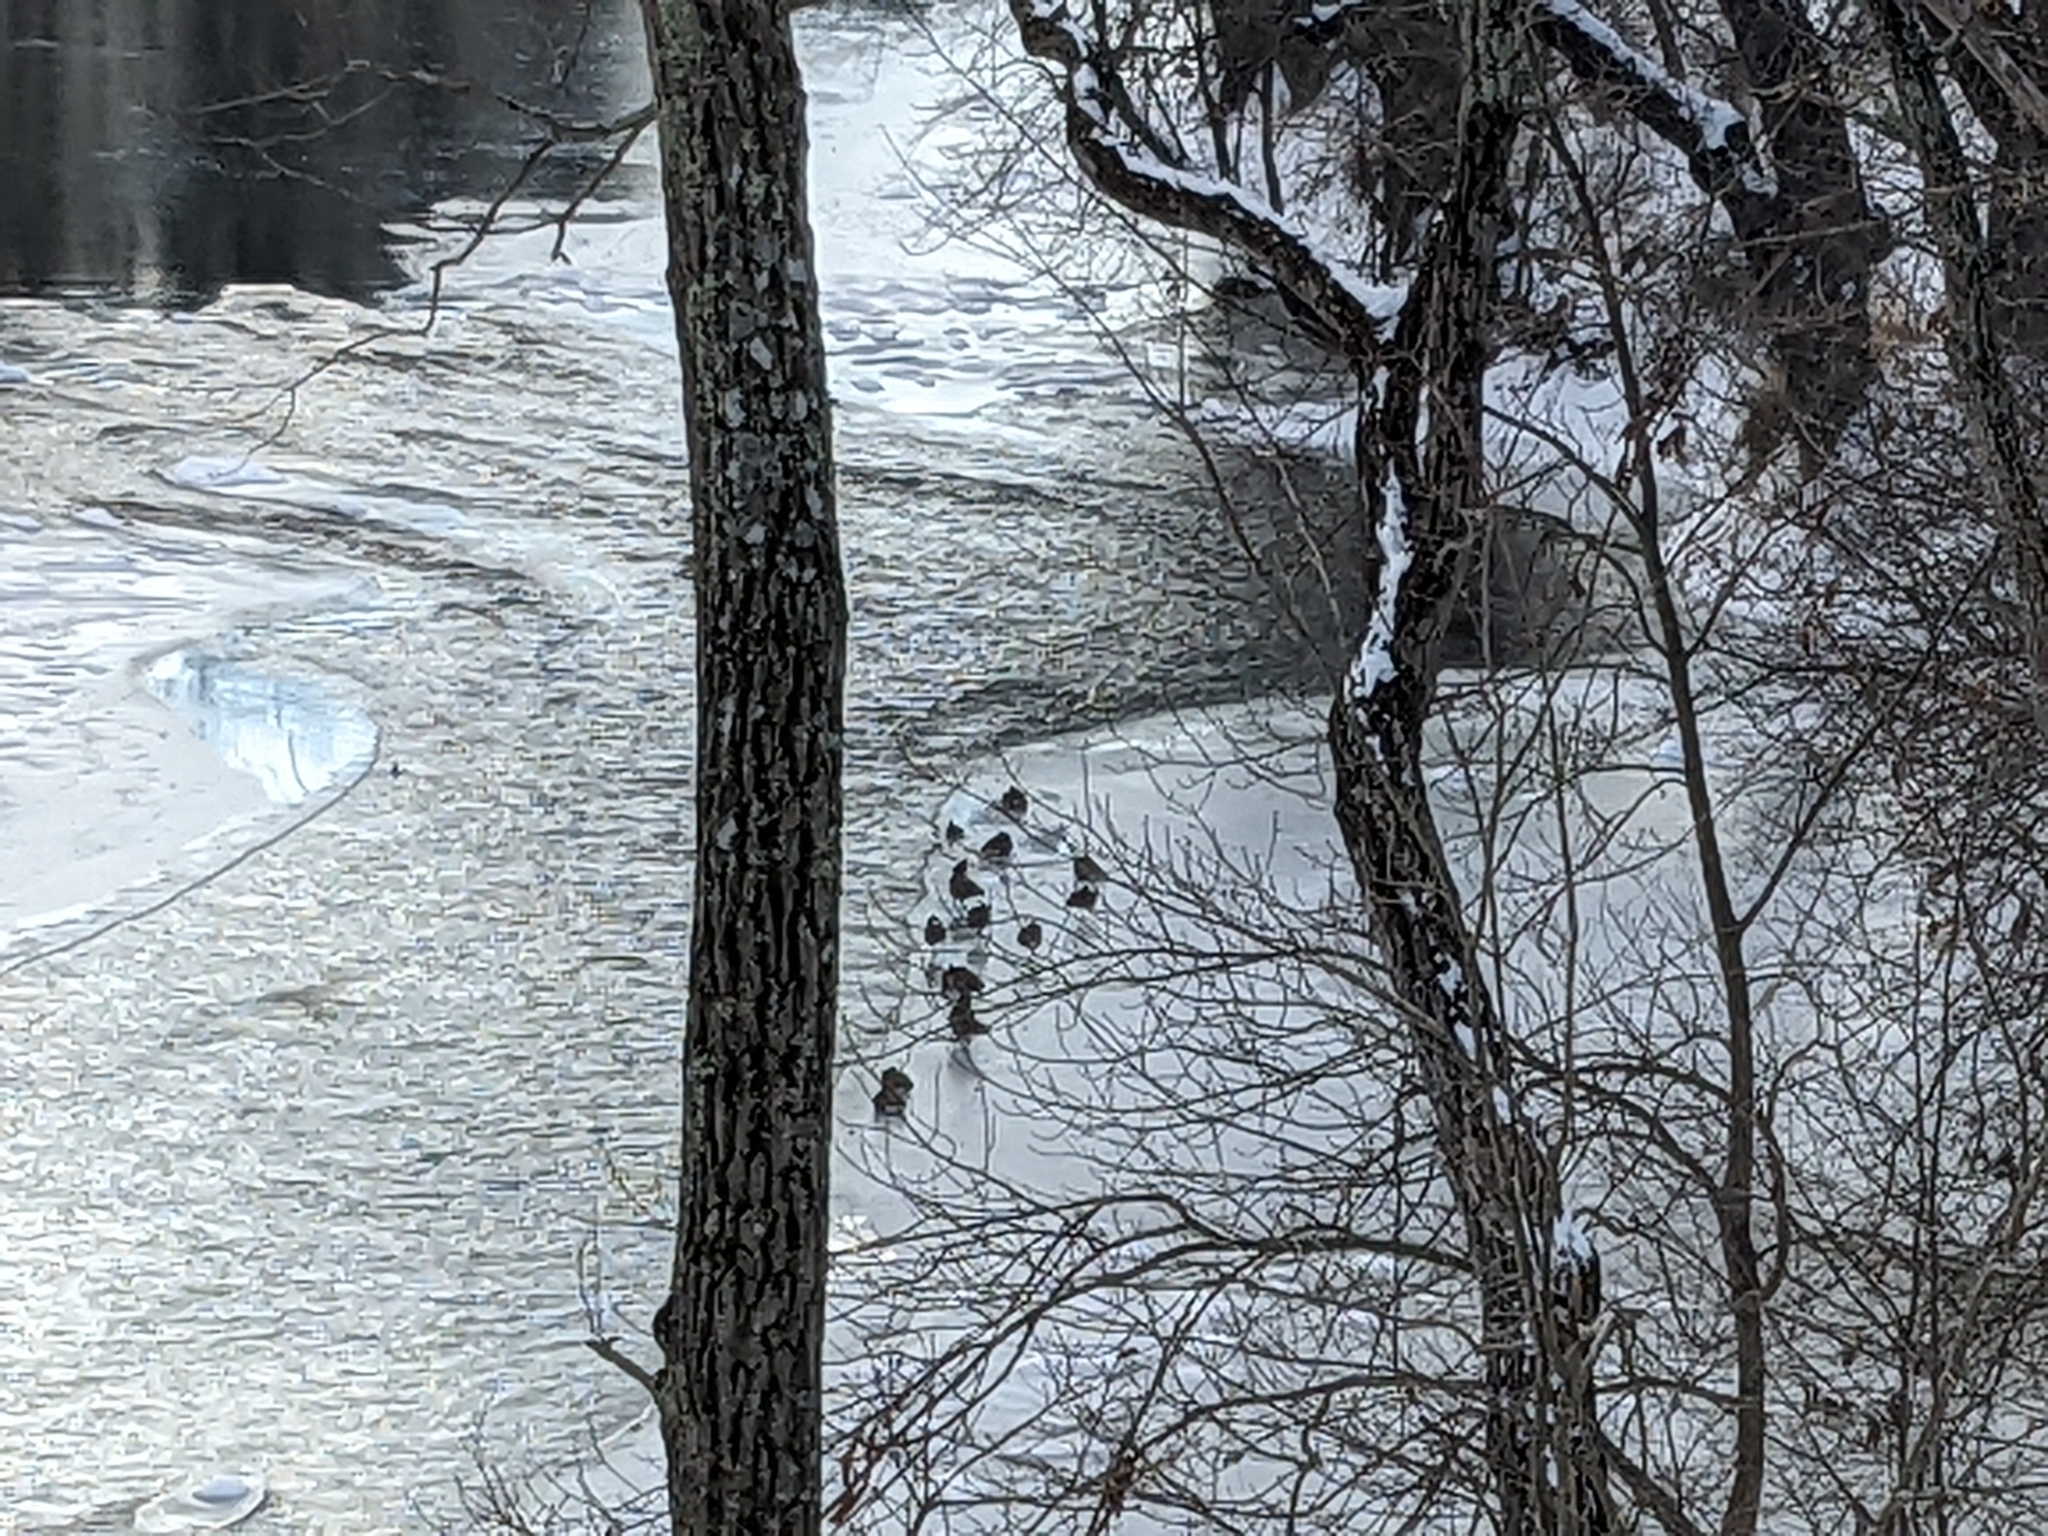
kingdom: Animalia
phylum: Chordata
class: Aves
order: Anseriformes
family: Anatidae
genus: Branta
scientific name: Branta canadensis
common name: Canada goose
